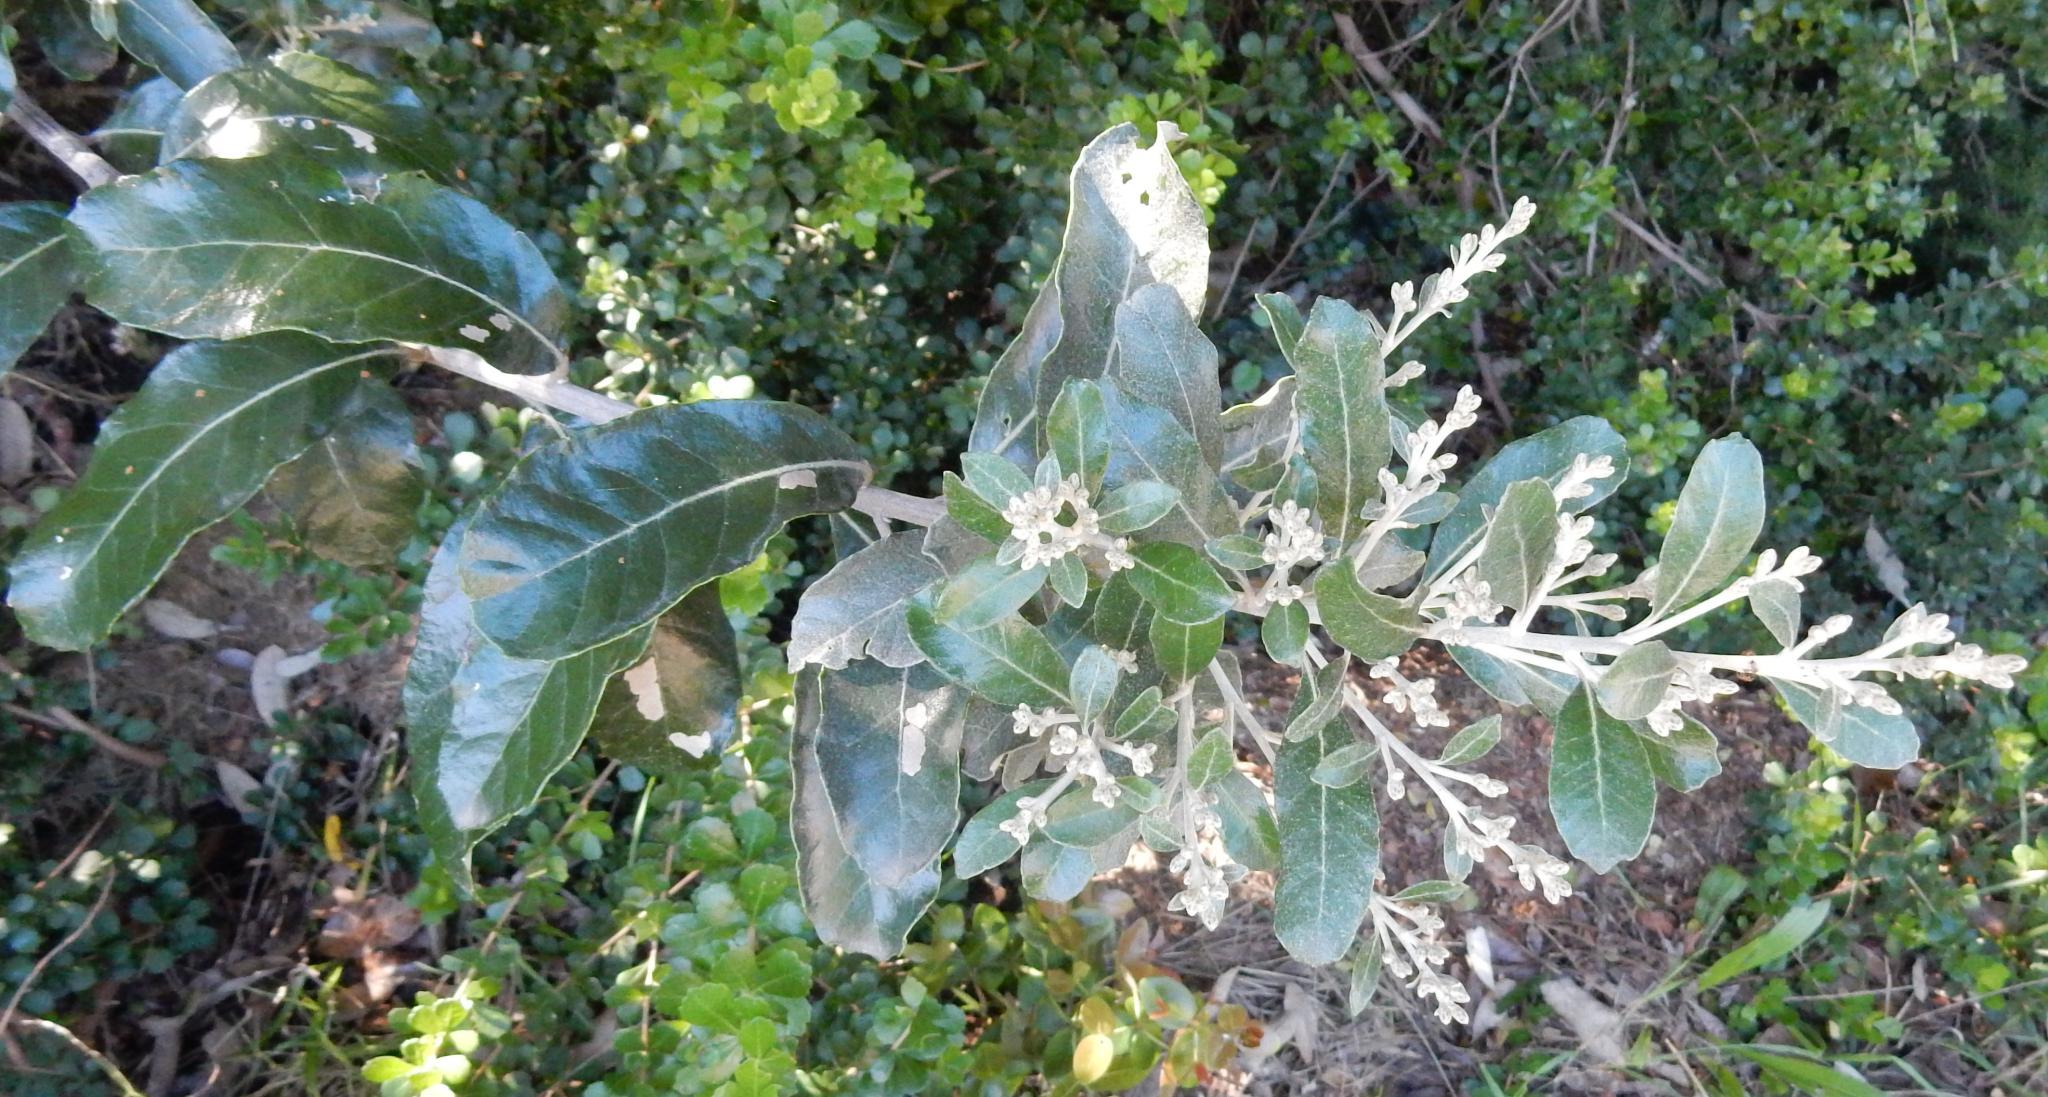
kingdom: Plantae
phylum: Tracheophyta
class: Magnoliopsida
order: Asterales
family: Asteraceae
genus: Brachylaena
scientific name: Brachylaena discolor
